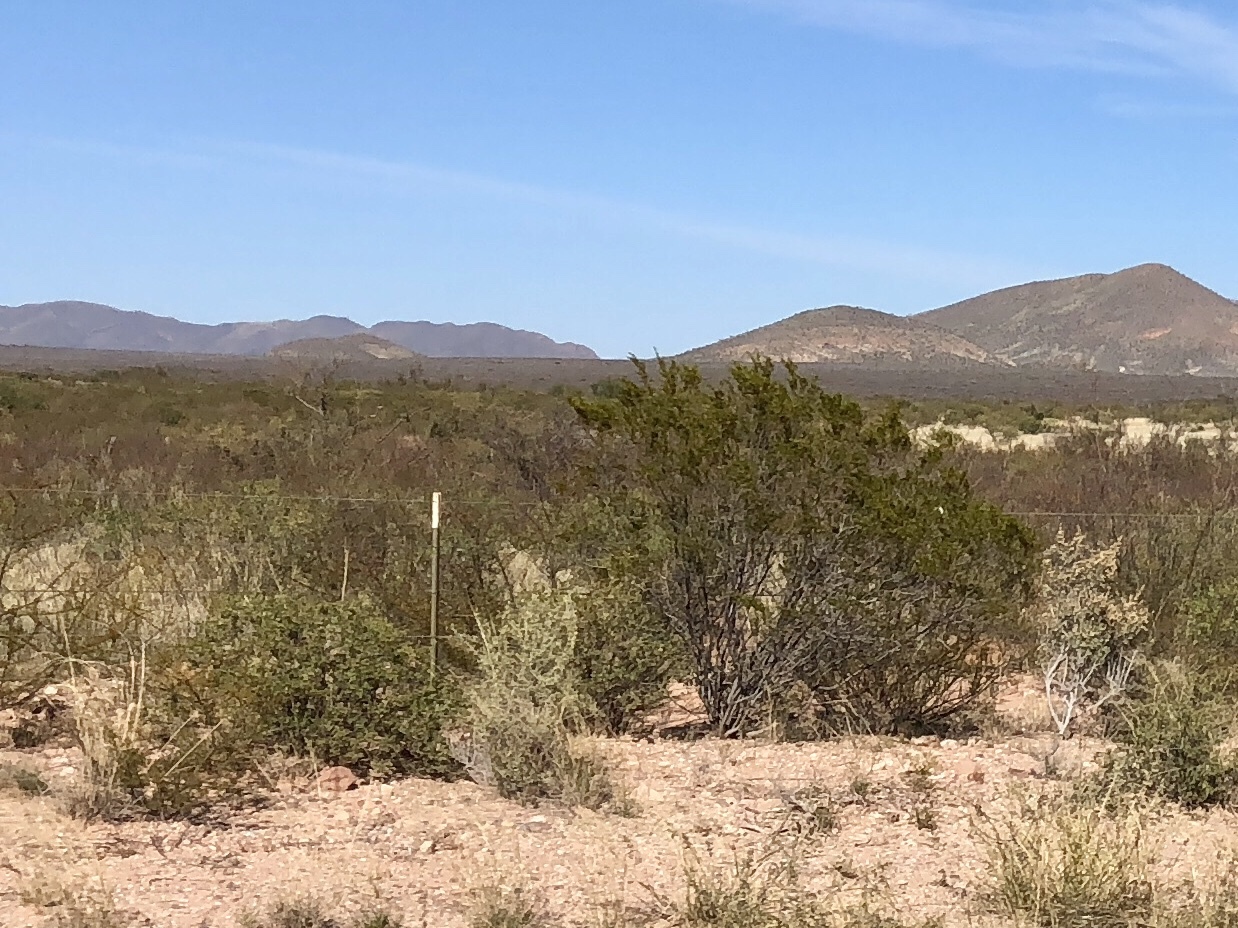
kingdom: Plantae
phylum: Tracheophyta
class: Magnoliopsida
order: Zygophyllales
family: Zygophyllaceae
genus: Larrea
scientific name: Larrea tridentata
